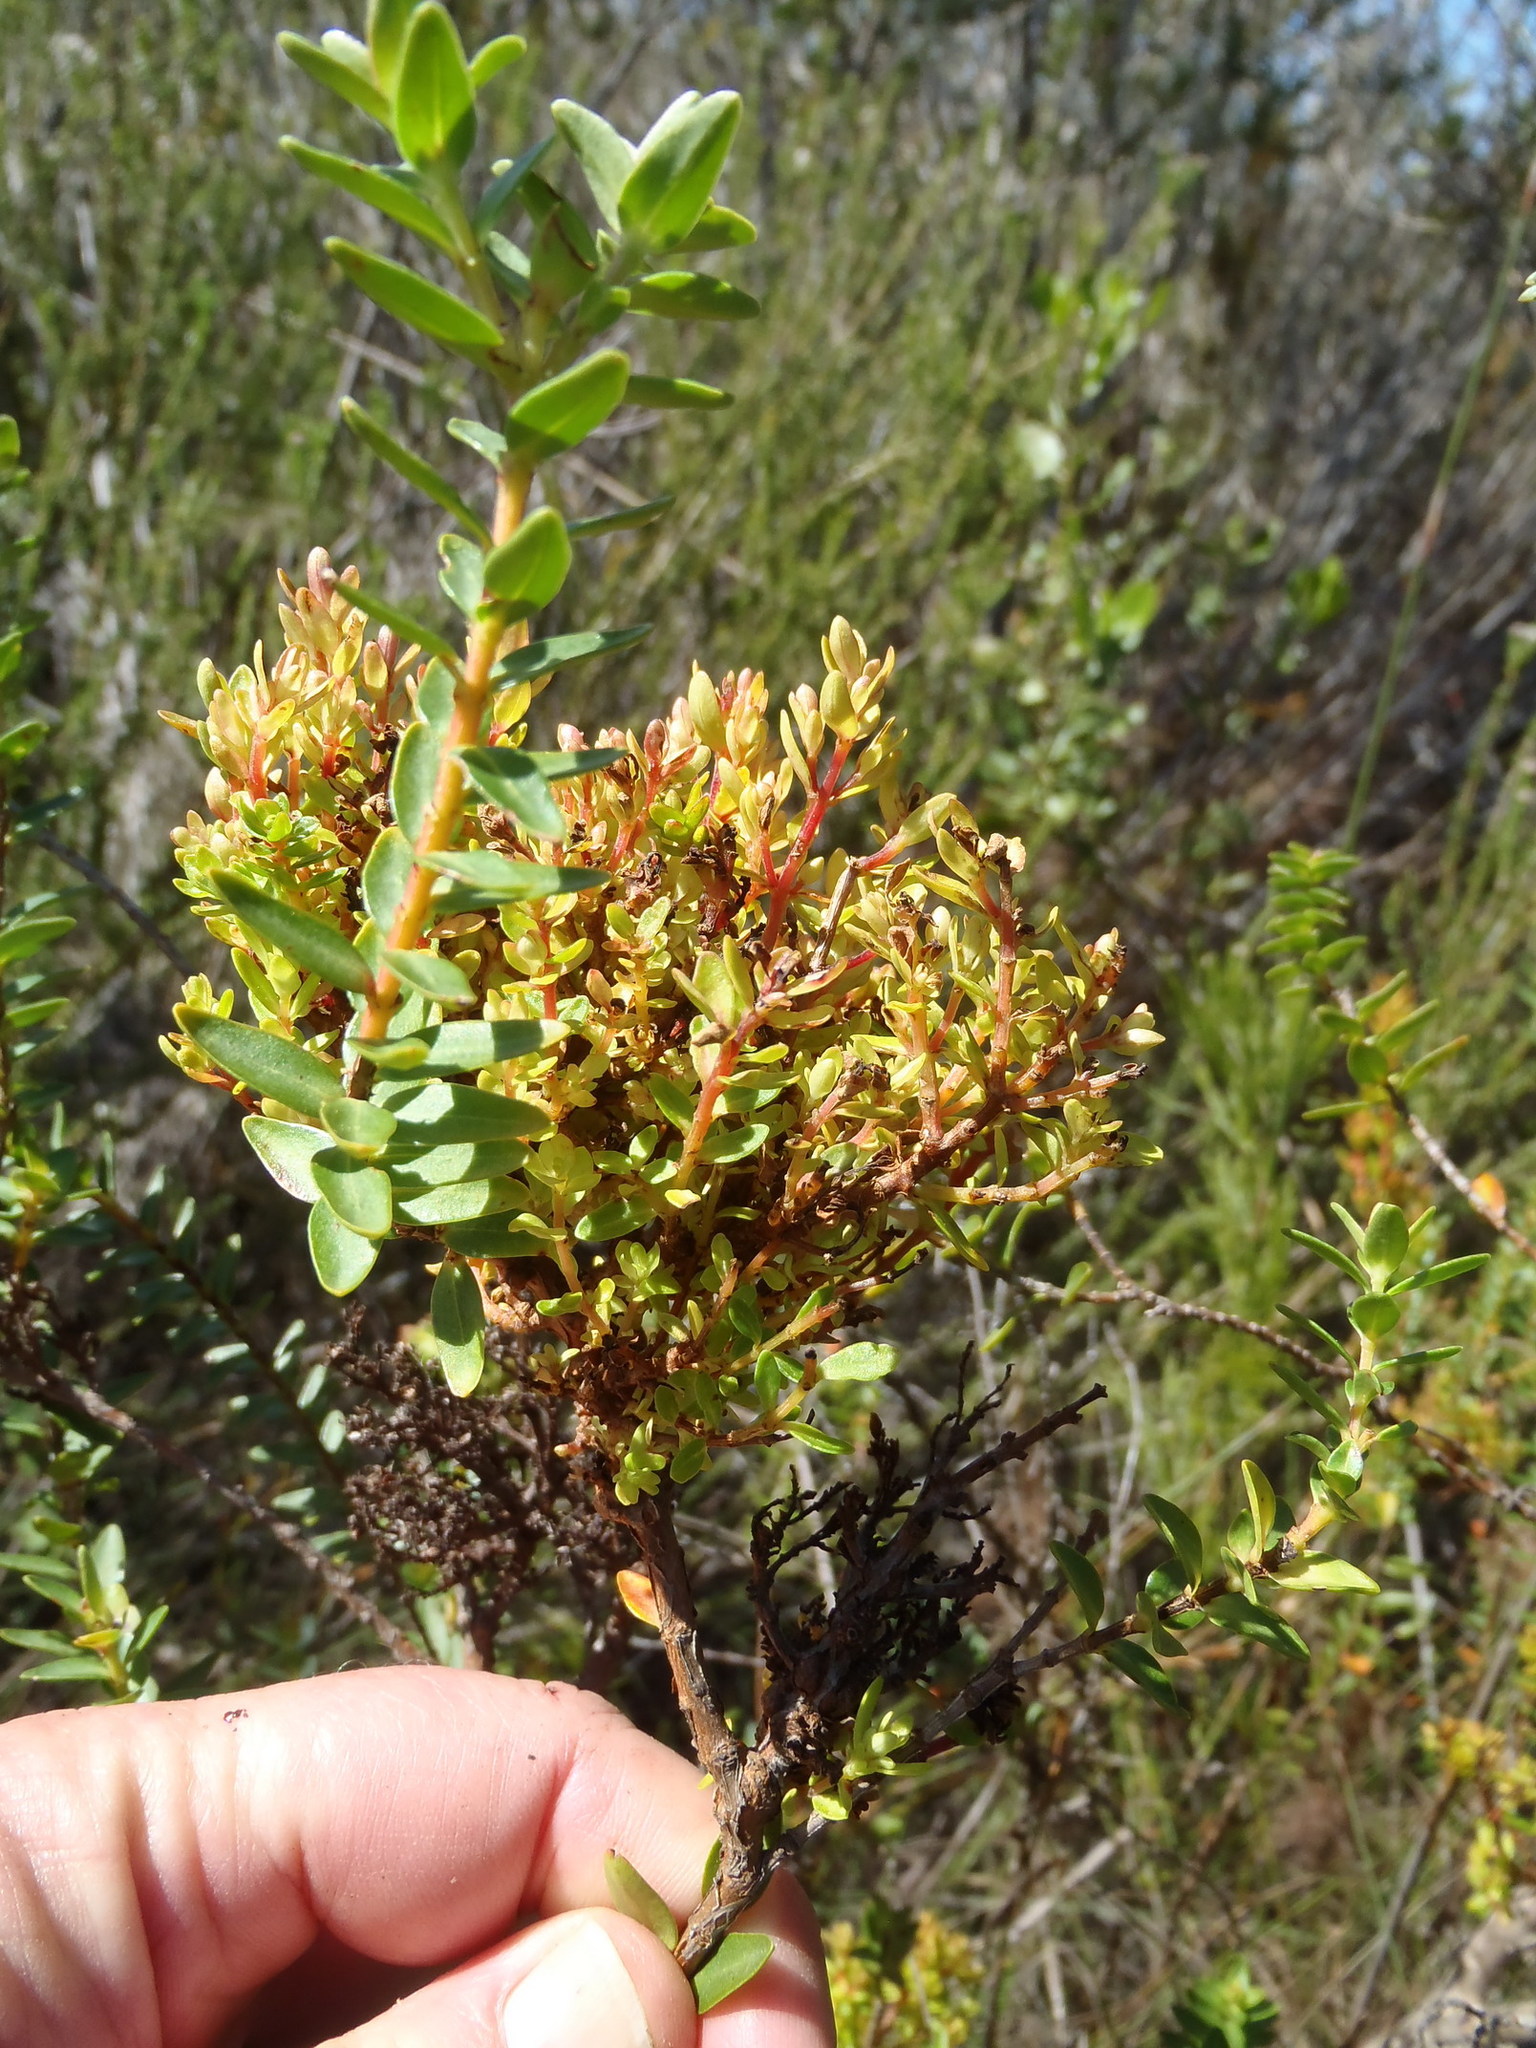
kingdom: Bacteria
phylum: Firmicutes
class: Bacilli
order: Acholeplasmatales
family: Acholeplasmataceae
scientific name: Acholeplasmataceae
